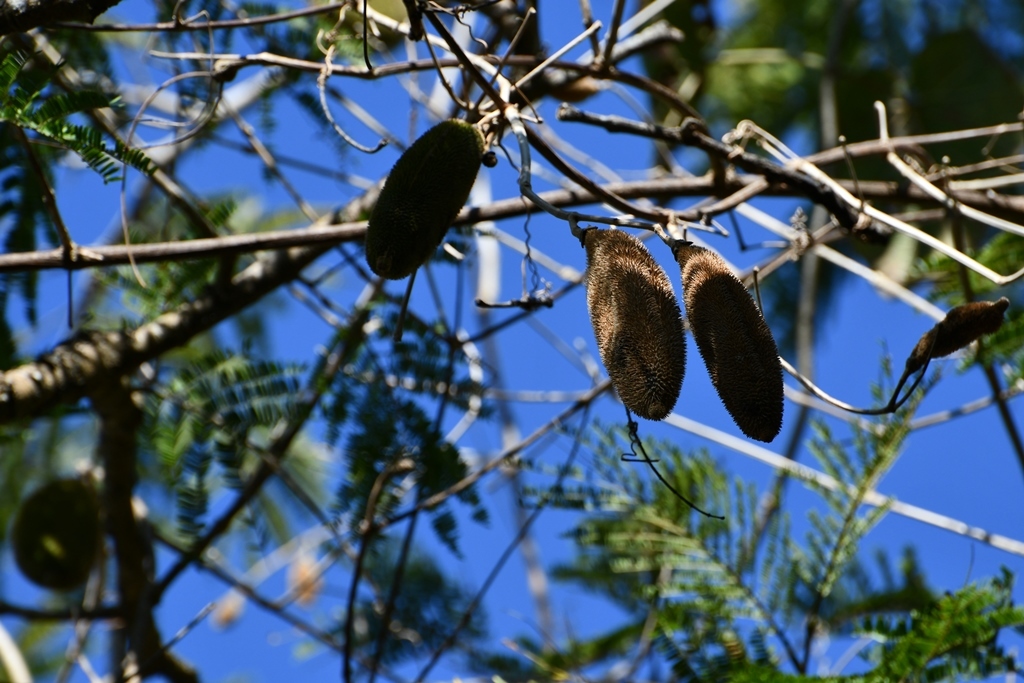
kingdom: Plantae
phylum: Tracheophyta
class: Magnoliopsida
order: Lamiales
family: Bignoniaceae
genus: Amphilophium
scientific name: Amphilophium crucigerum
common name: Monkey comb
